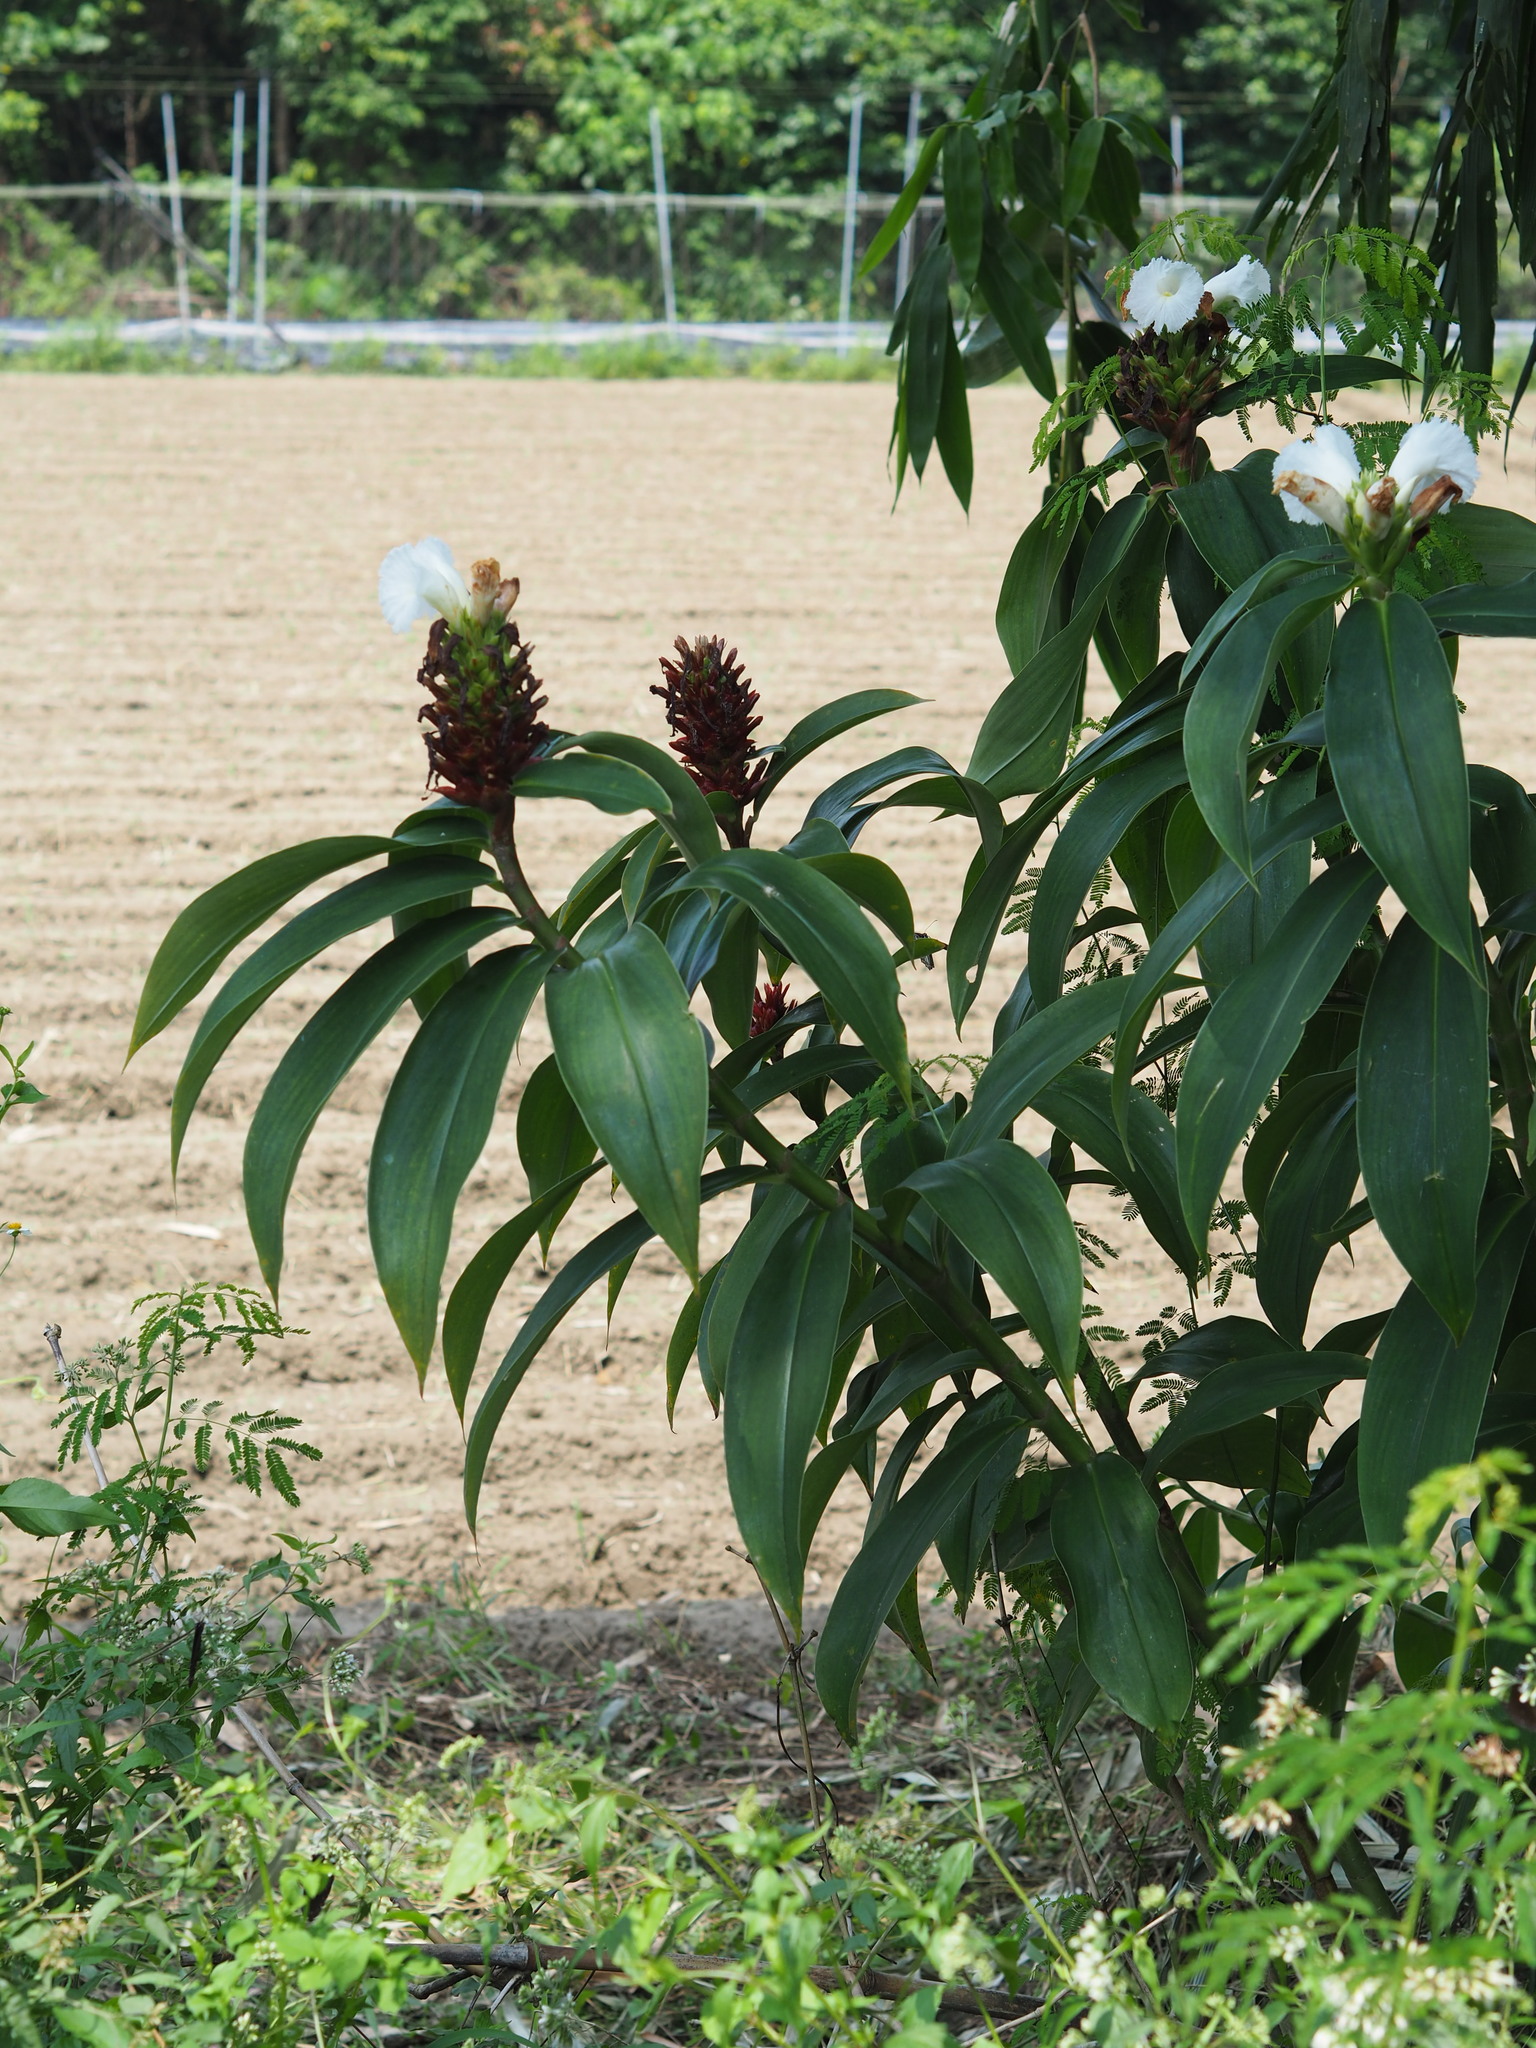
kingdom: Plantae
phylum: Tracheophyta
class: Liliopsida
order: Zingiberales
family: Costaceae
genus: Hellenia
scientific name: Hellenia speciosa
